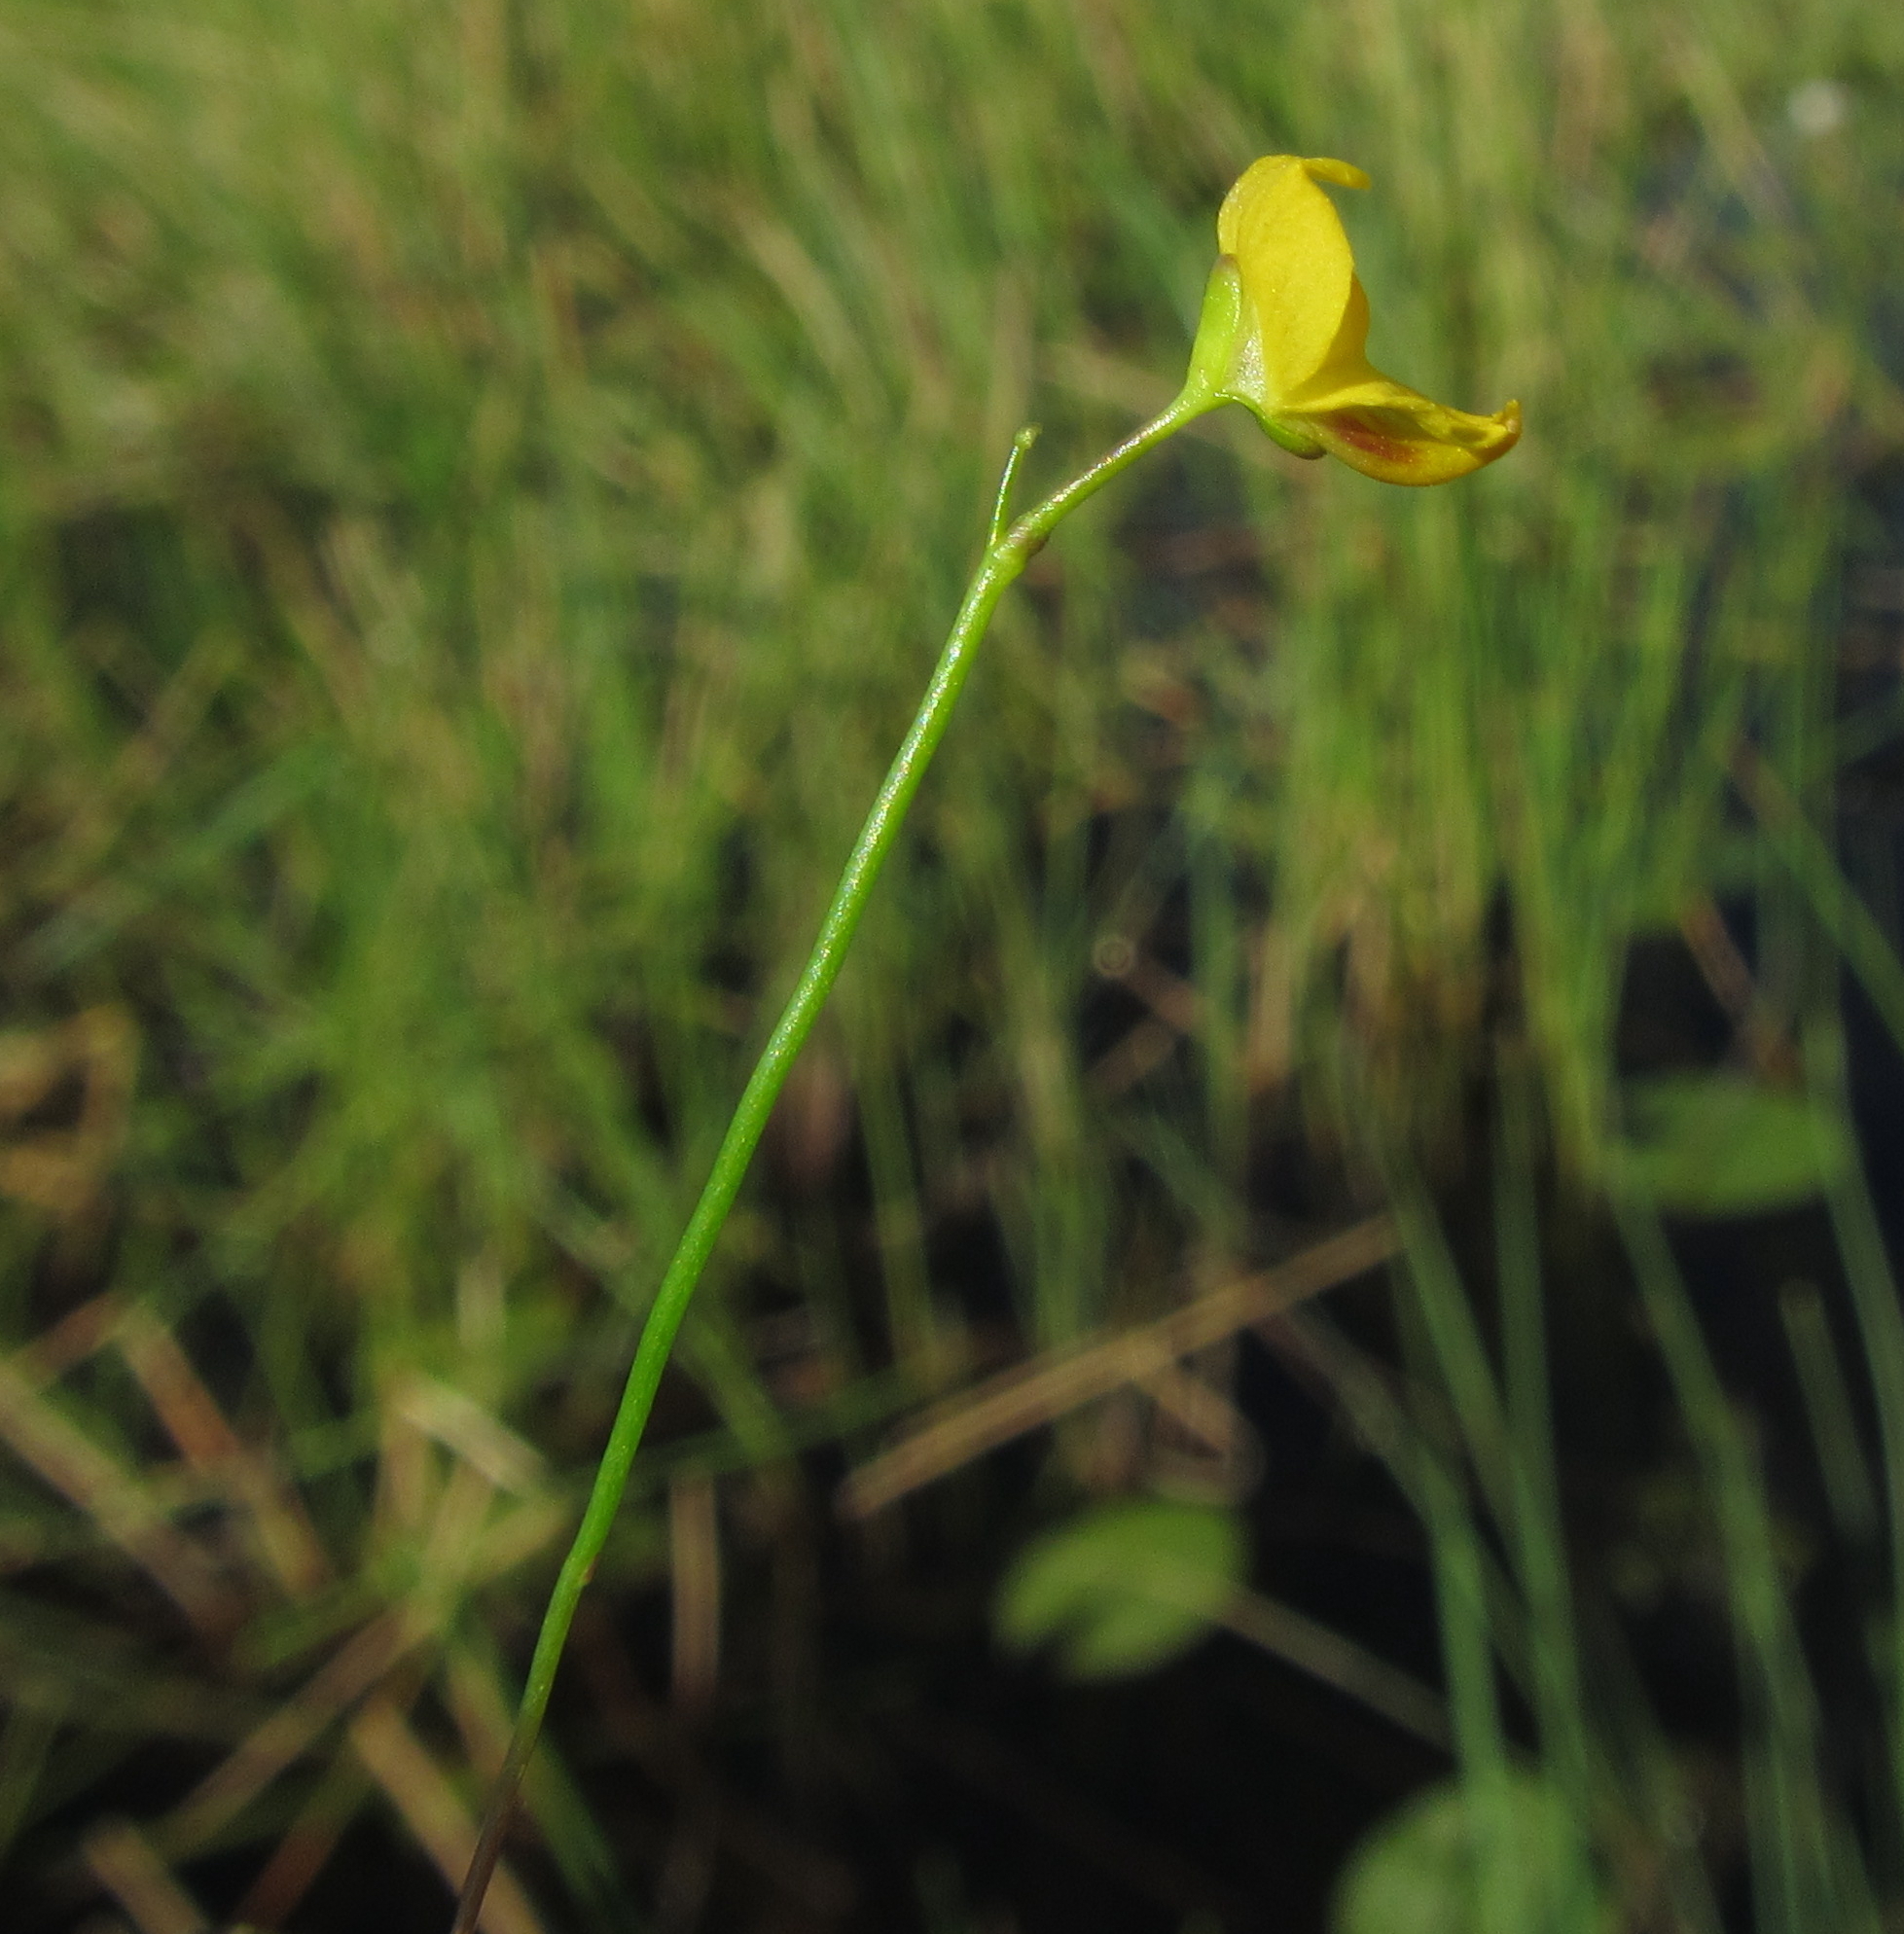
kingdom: Plantae
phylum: Tracheophyta
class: Magnoliopsida
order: Lamiales
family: Lentibulariaceae
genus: Utricularia
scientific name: Utricularia gibba
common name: Humped bladderwort
